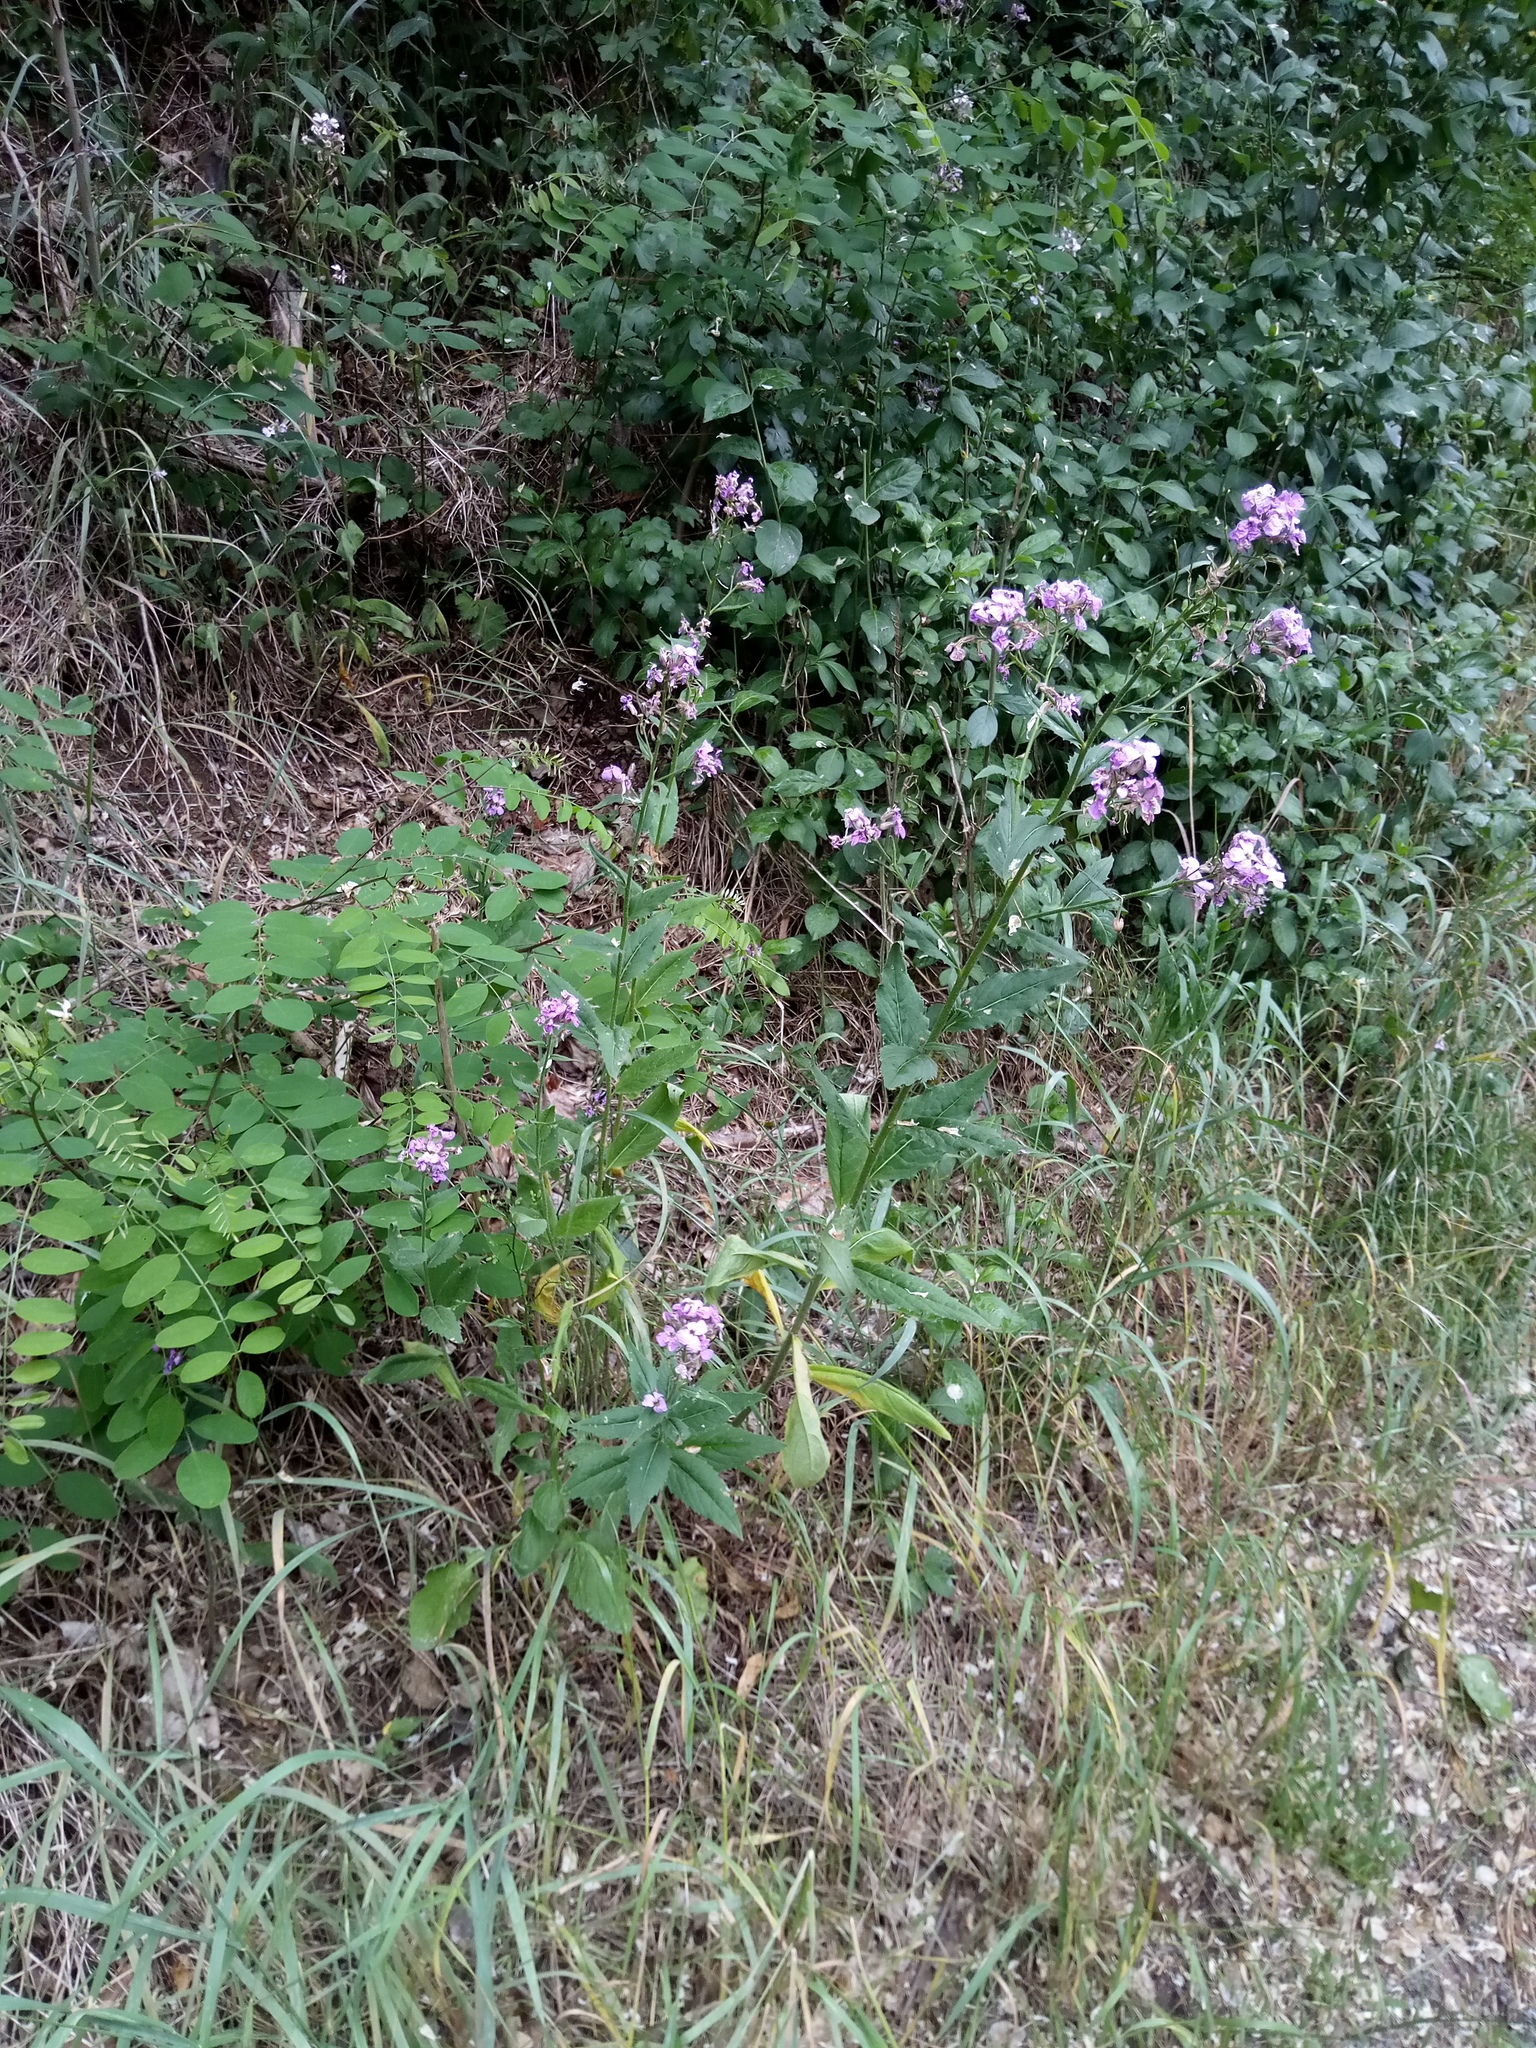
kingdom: Plantae
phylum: Tracheophyta
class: Magnoliopsida
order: Brassicales
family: Brassicaceae
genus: Hesperis
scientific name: Hesperis matronalis
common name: Dame's-violet
